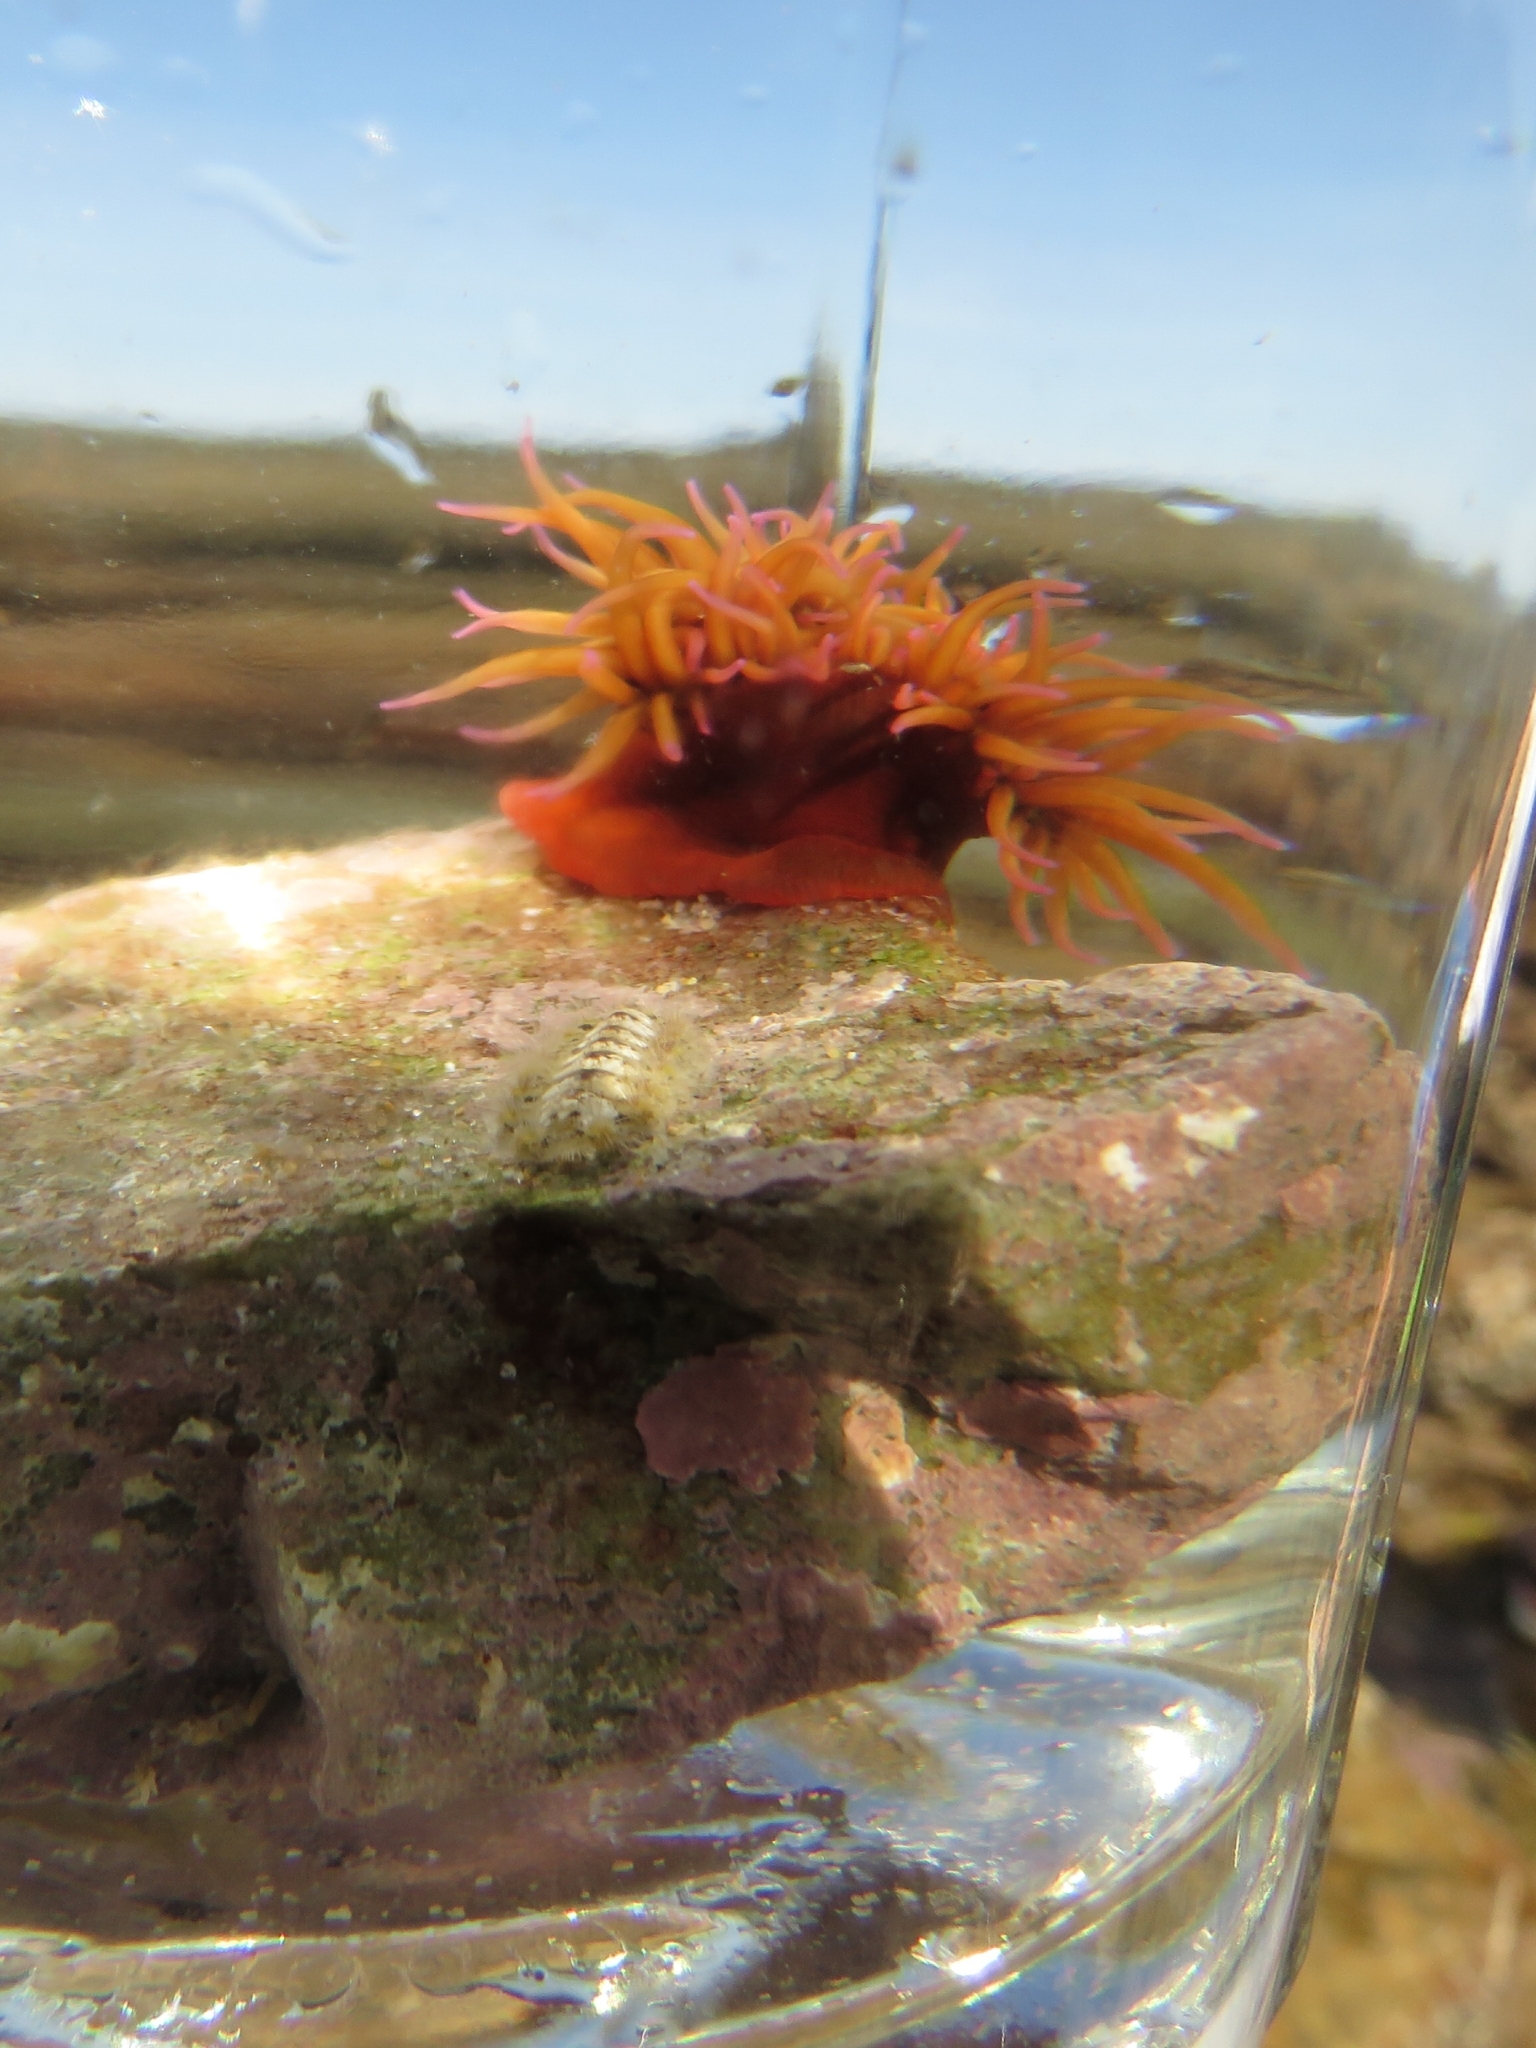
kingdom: Animalia
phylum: Cnidaria
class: Anthozoa
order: Actiniaria
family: Actiniidae
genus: Pseudactinia
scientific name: Pseudactinia flagellifera
